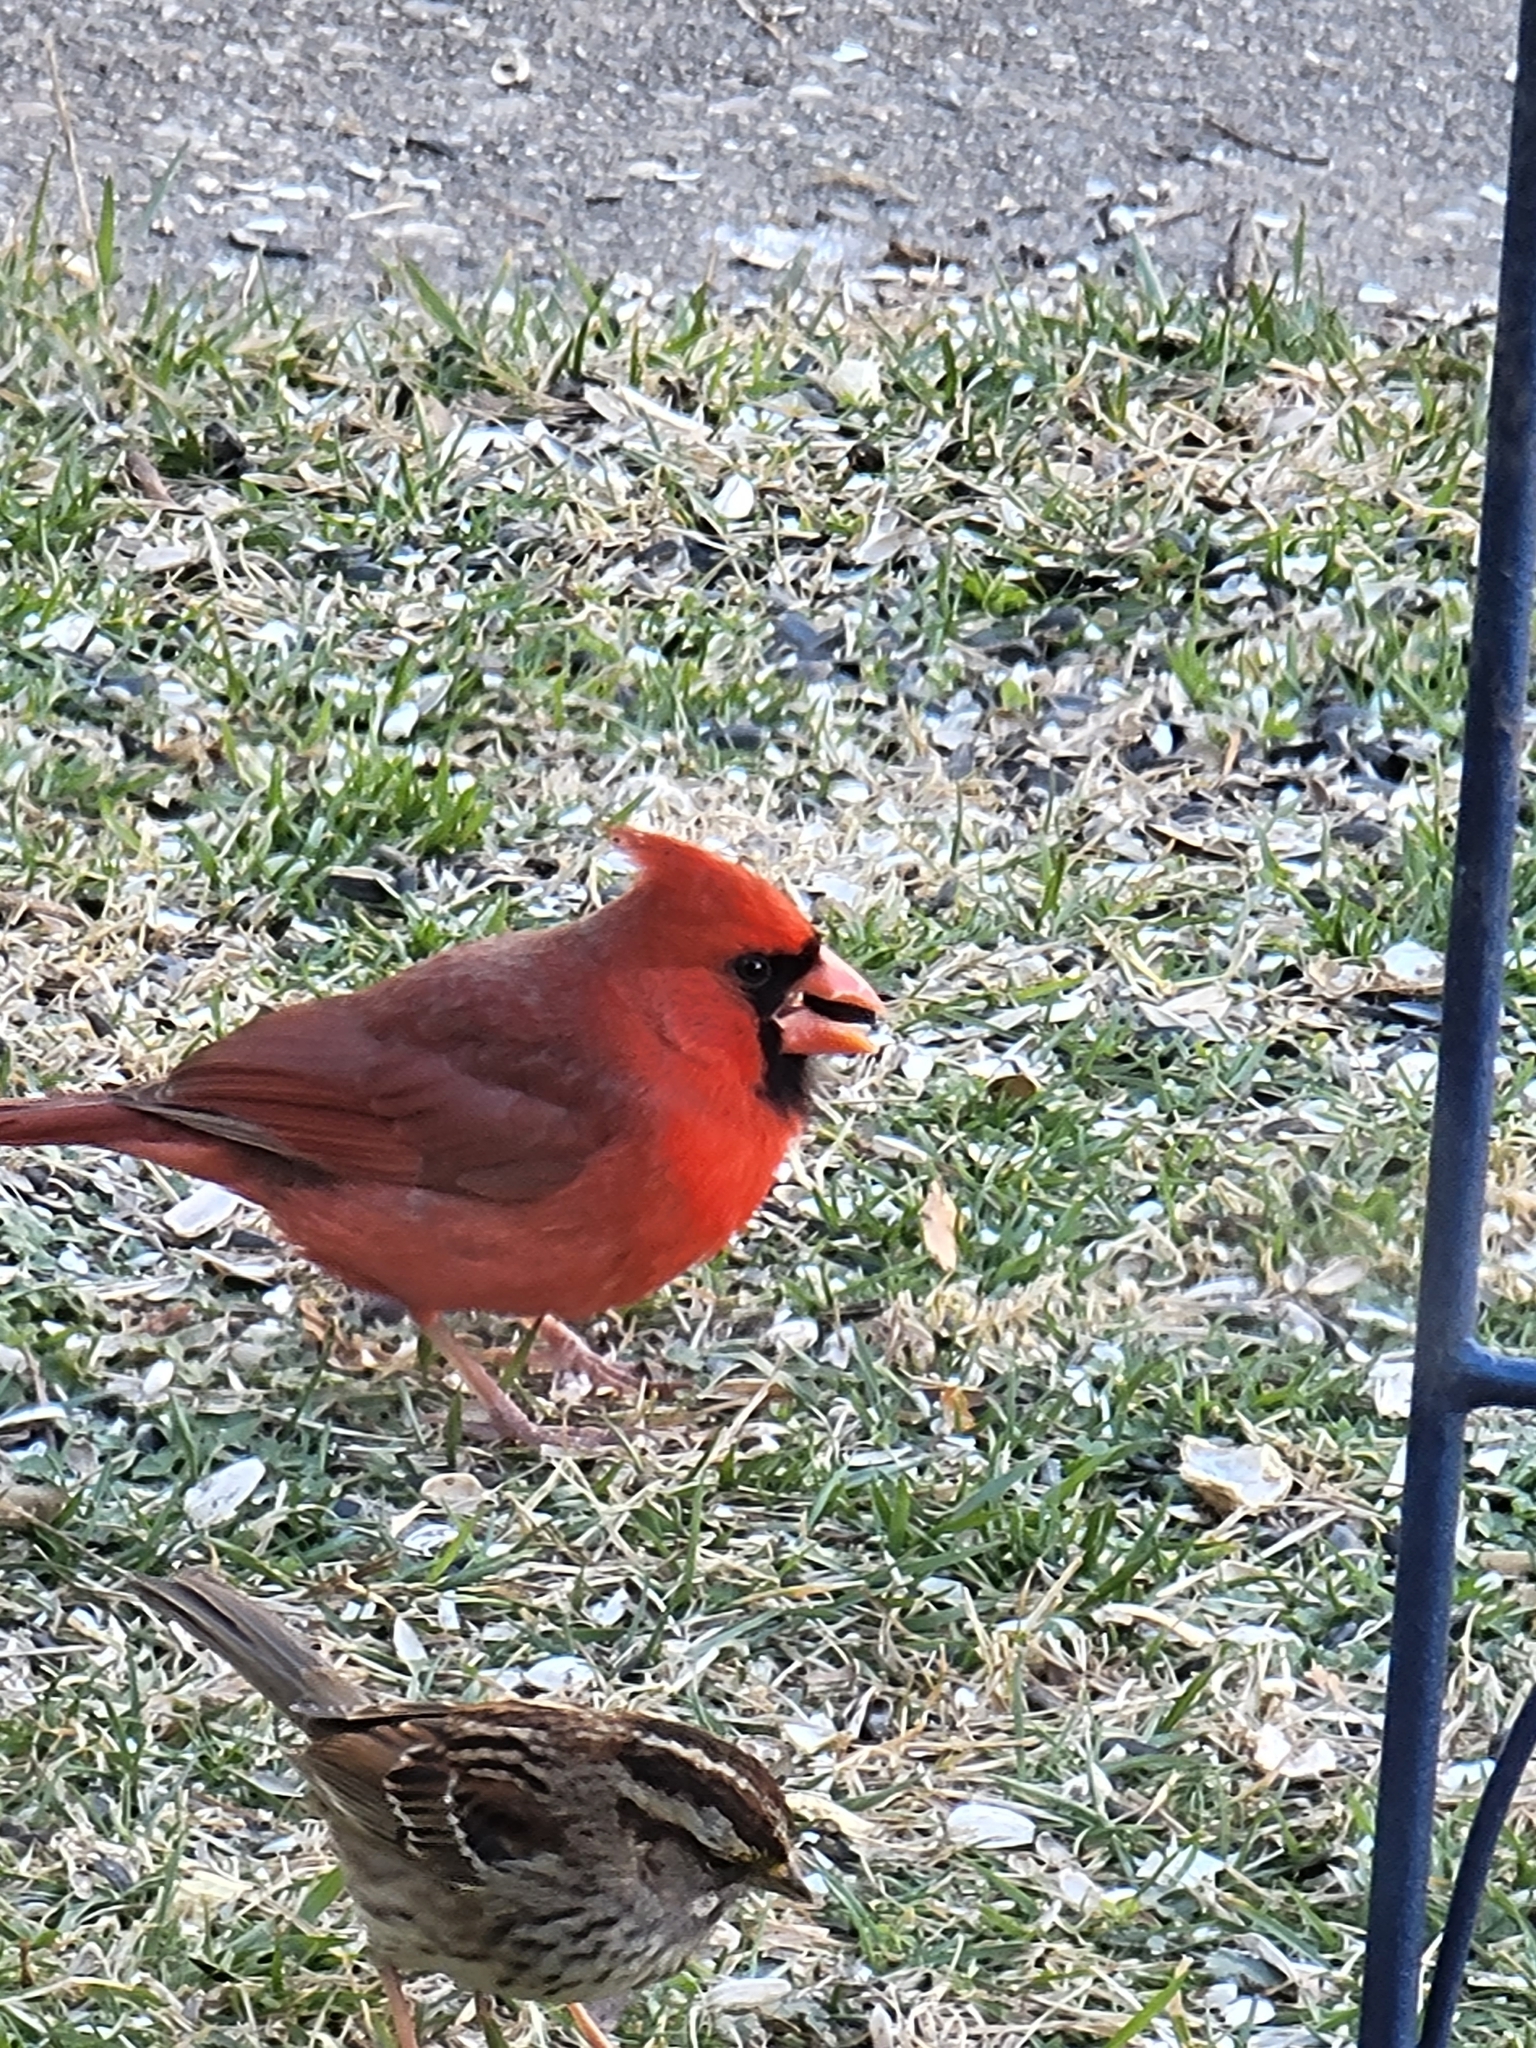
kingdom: Animalia
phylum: Chordata
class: Aves
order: Passeriformes
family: Cardinalidae
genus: Cardinalis
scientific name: Cardinalis cardinalis
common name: Northern cardinal
